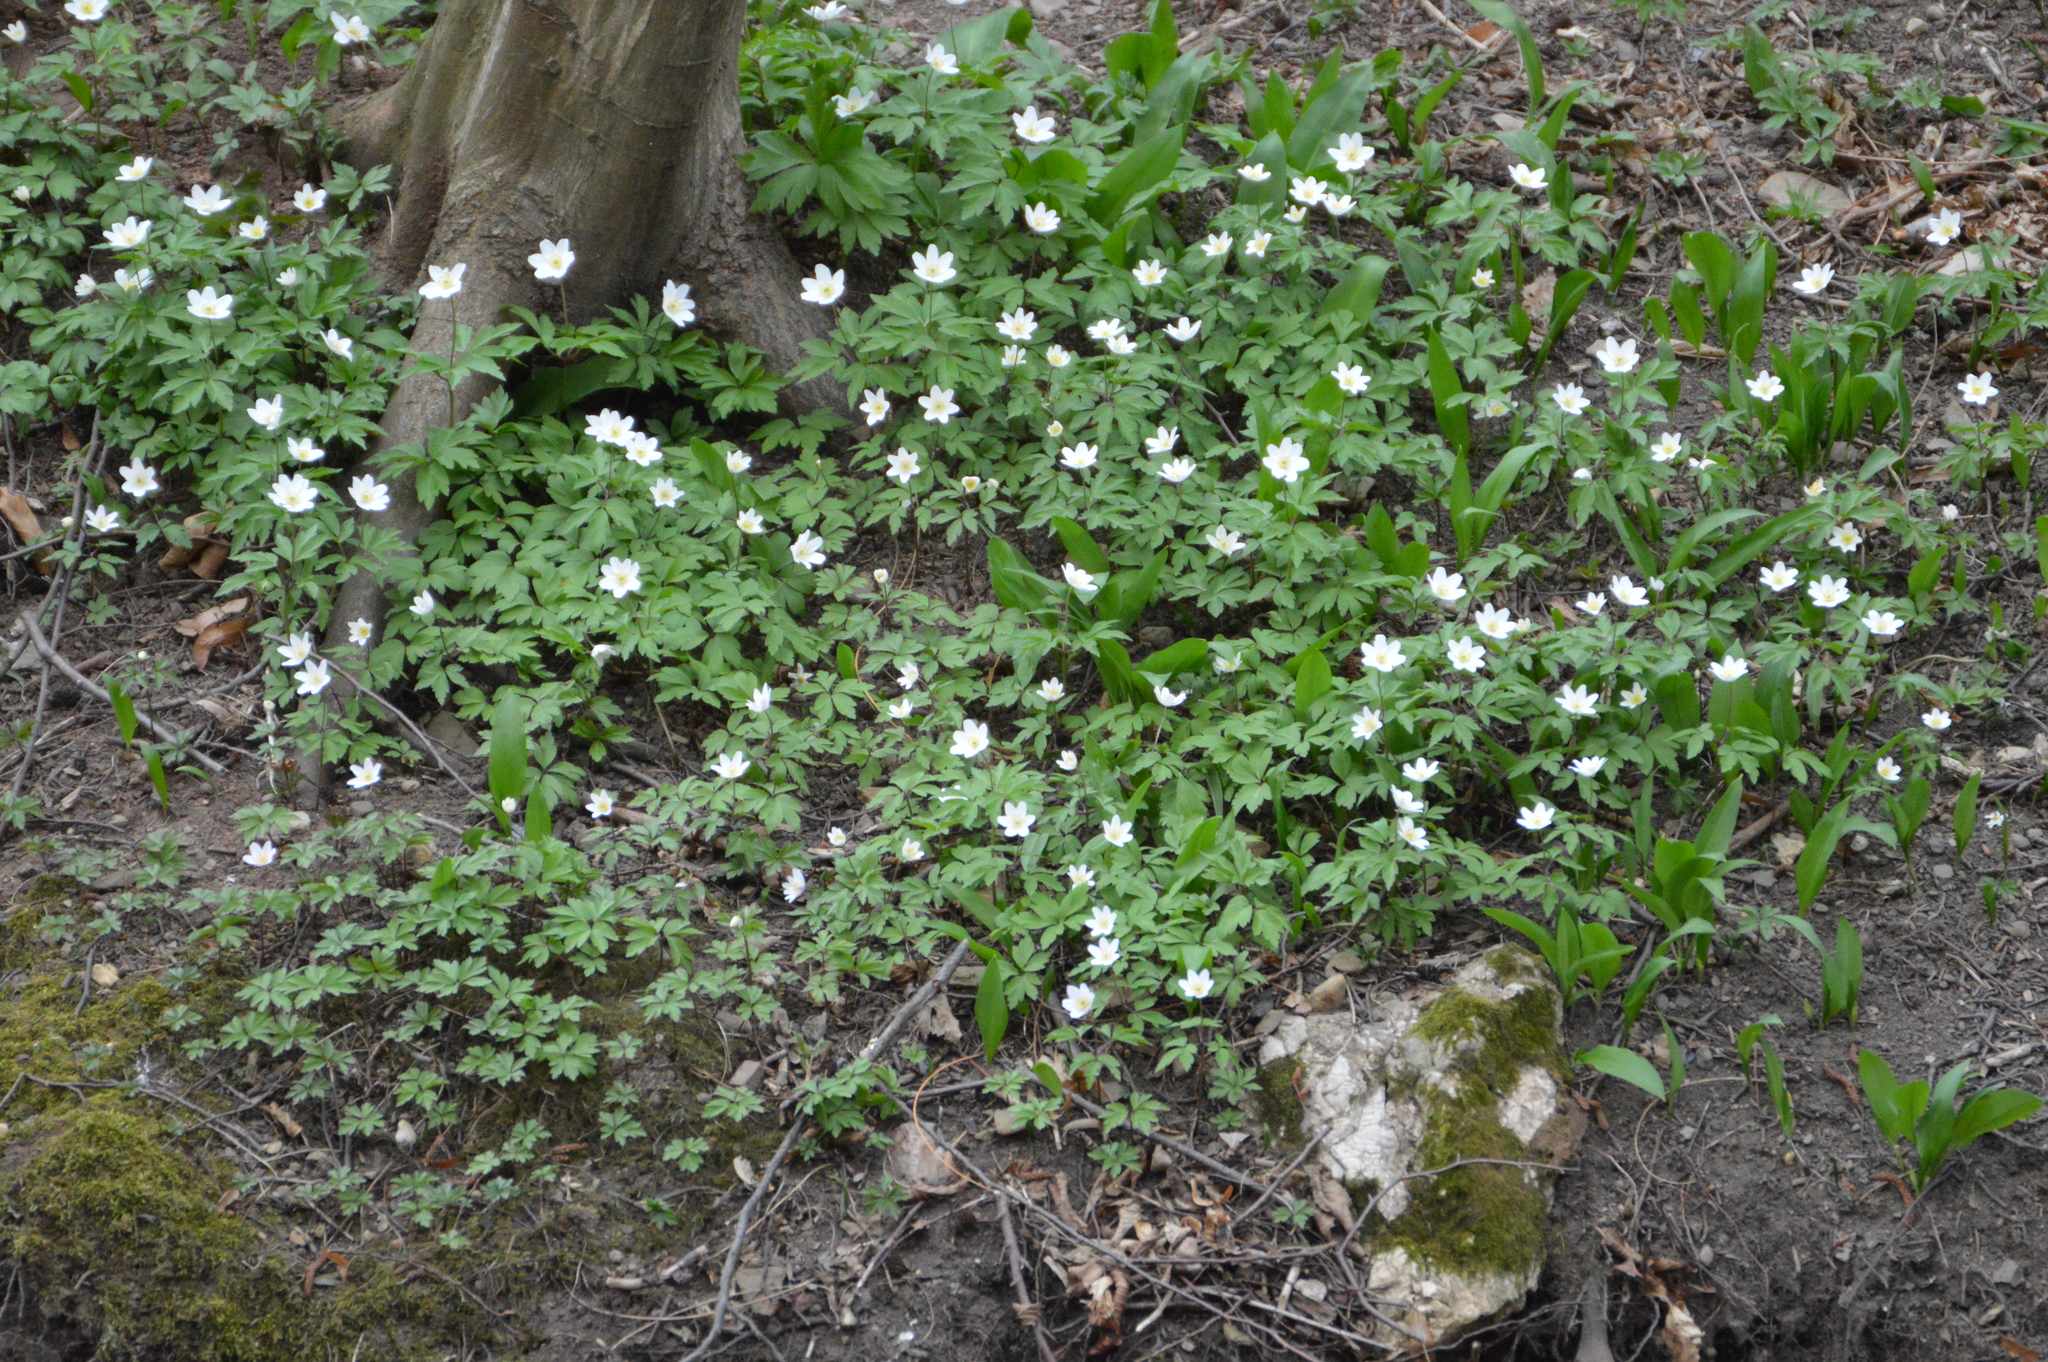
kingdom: Plantae
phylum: Tracheophyta
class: Magnoliopsida
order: Ranunculales
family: Ranunculaceae
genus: Anemone
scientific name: Anemone nemorosa
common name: Wood anemone
